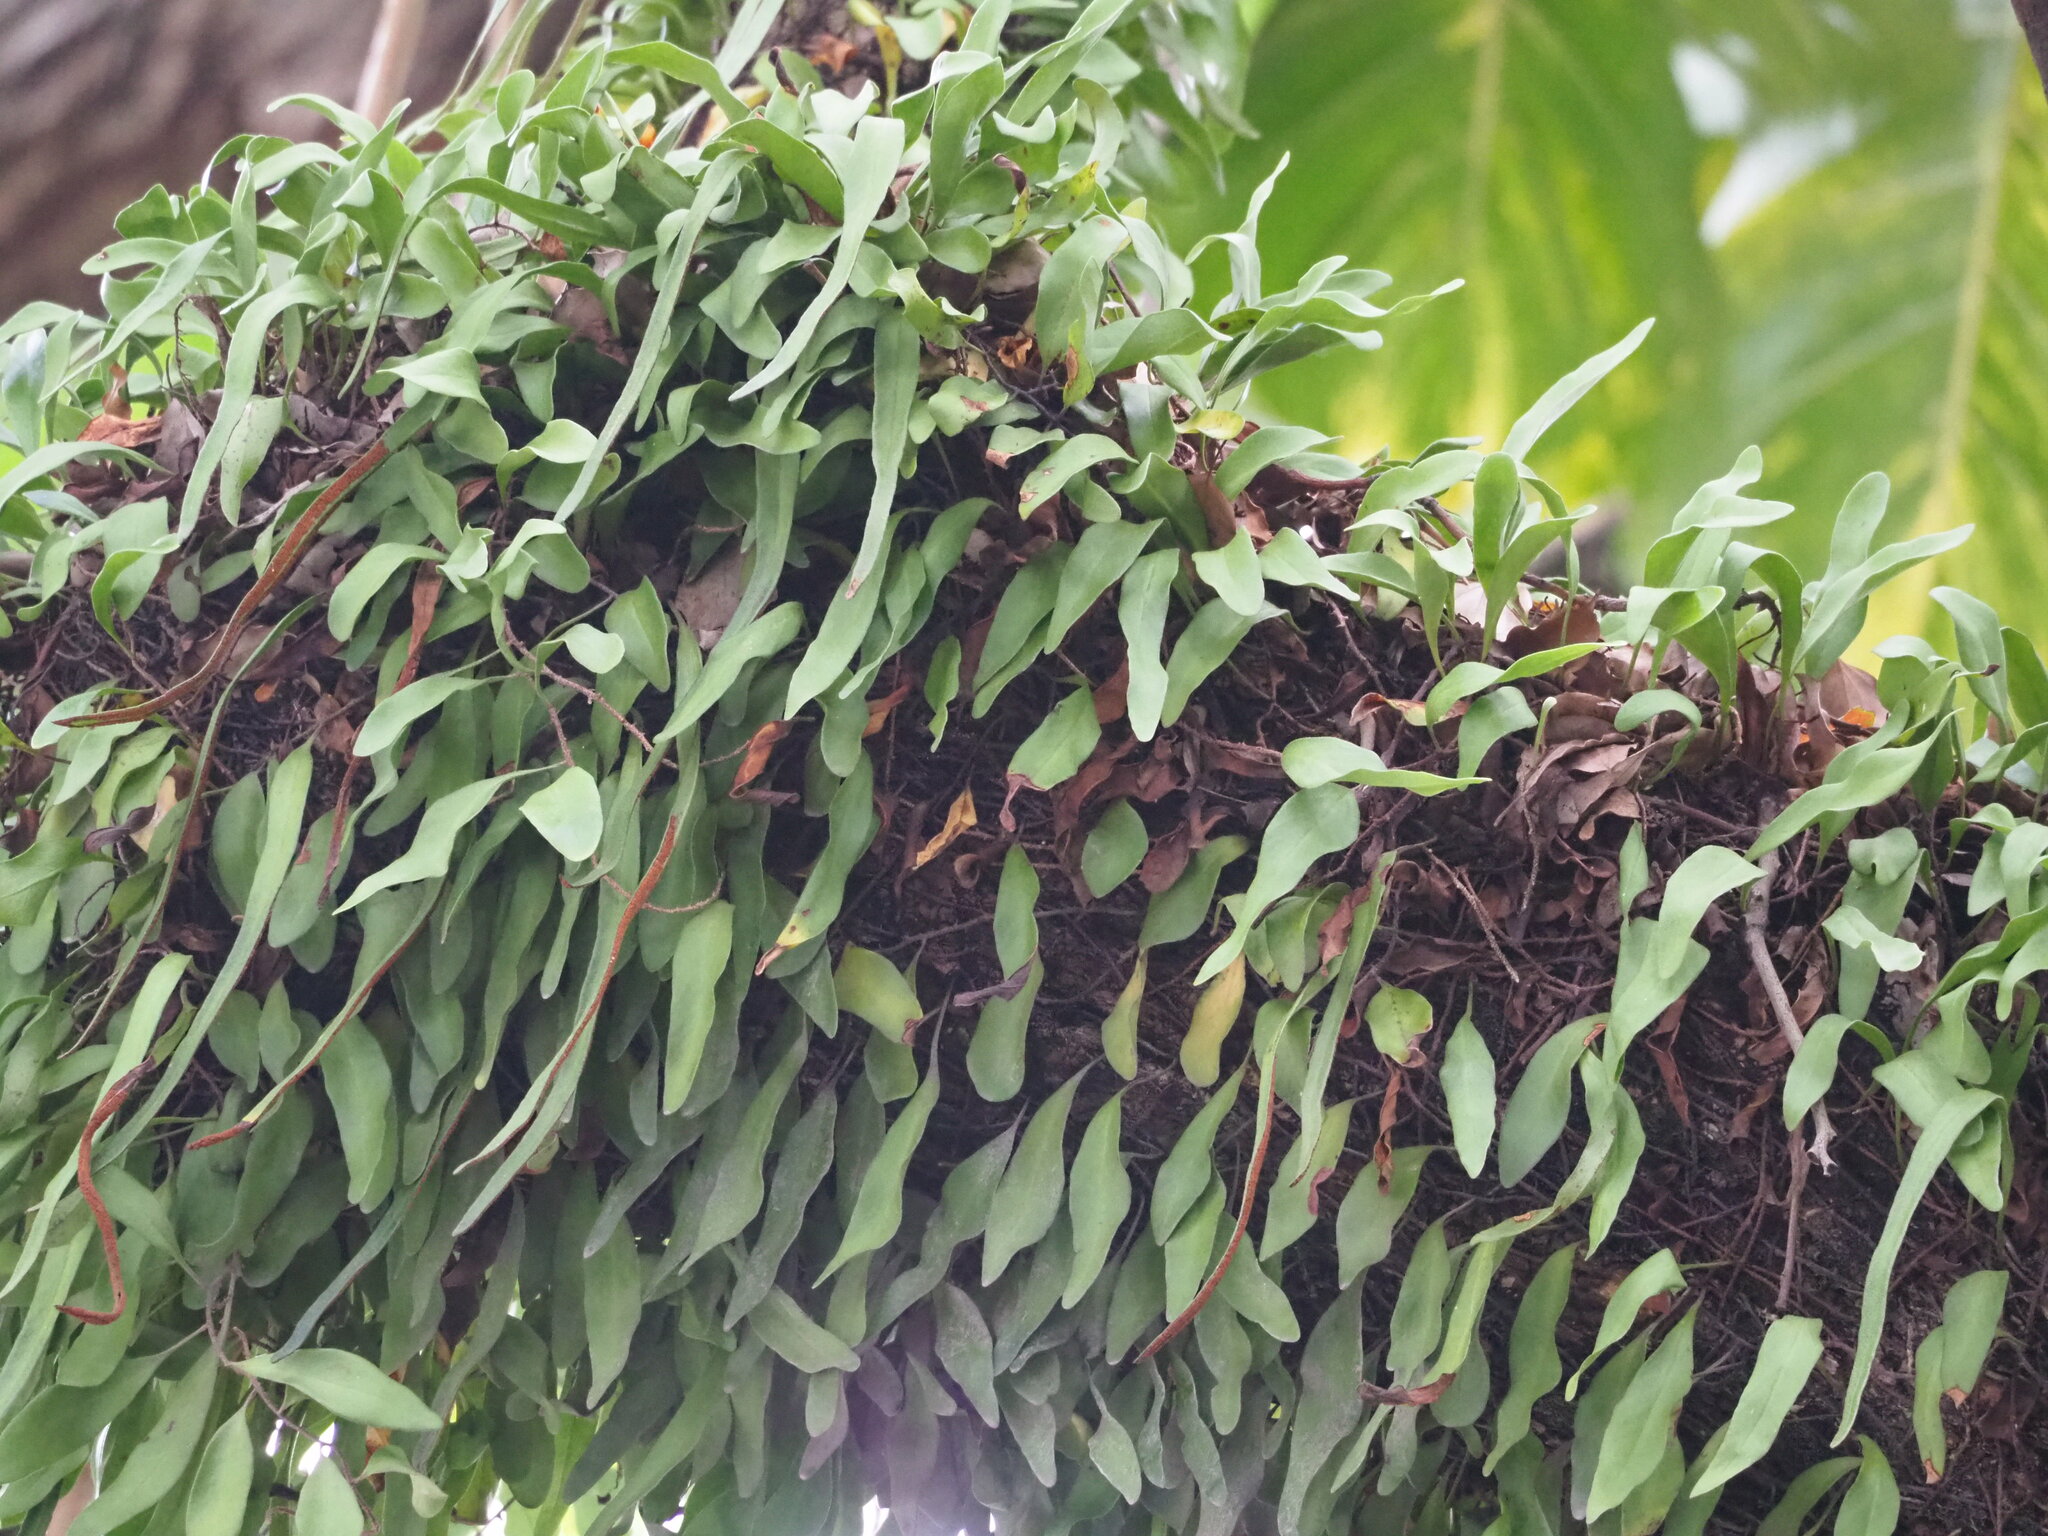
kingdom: Plantae
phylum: Tracheophyta
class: Polypodiopsida
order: Polypodiales
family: Polypodiaceae
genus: Pyrrosia
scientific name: Pyrrosia lanceolata
